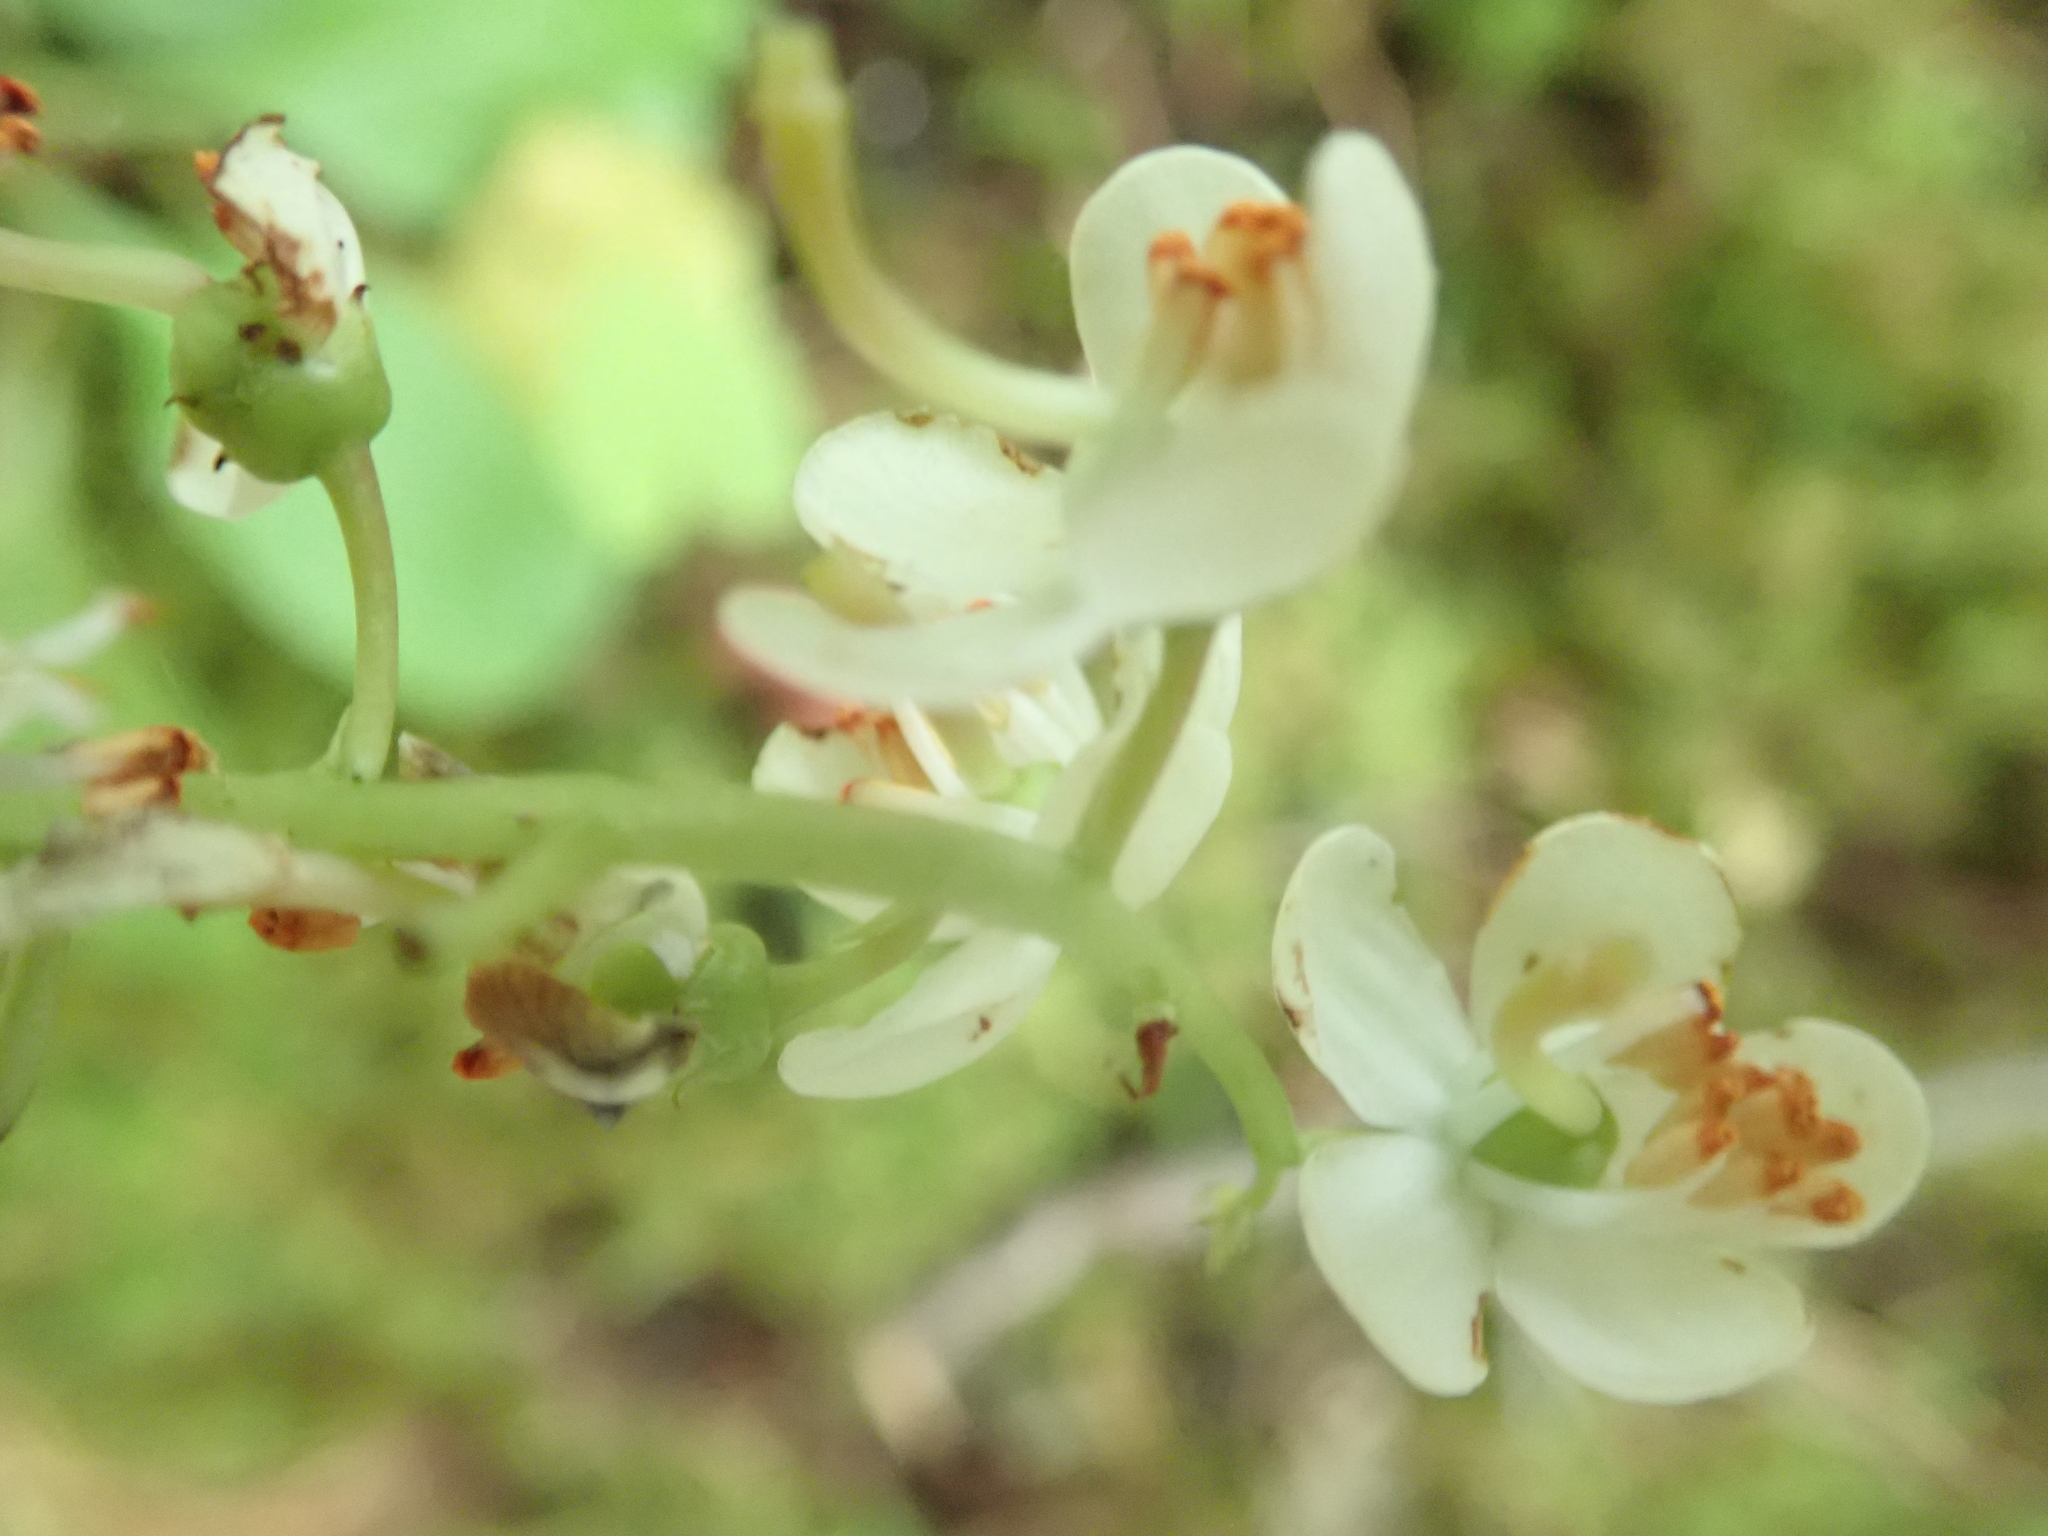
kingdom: Plantae
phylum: Tracheophyta
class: Magnoliopsida
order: Ericales
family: Ericaceae
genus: Pyrola
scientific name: Pyrola elliptica
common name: Shinleaf
